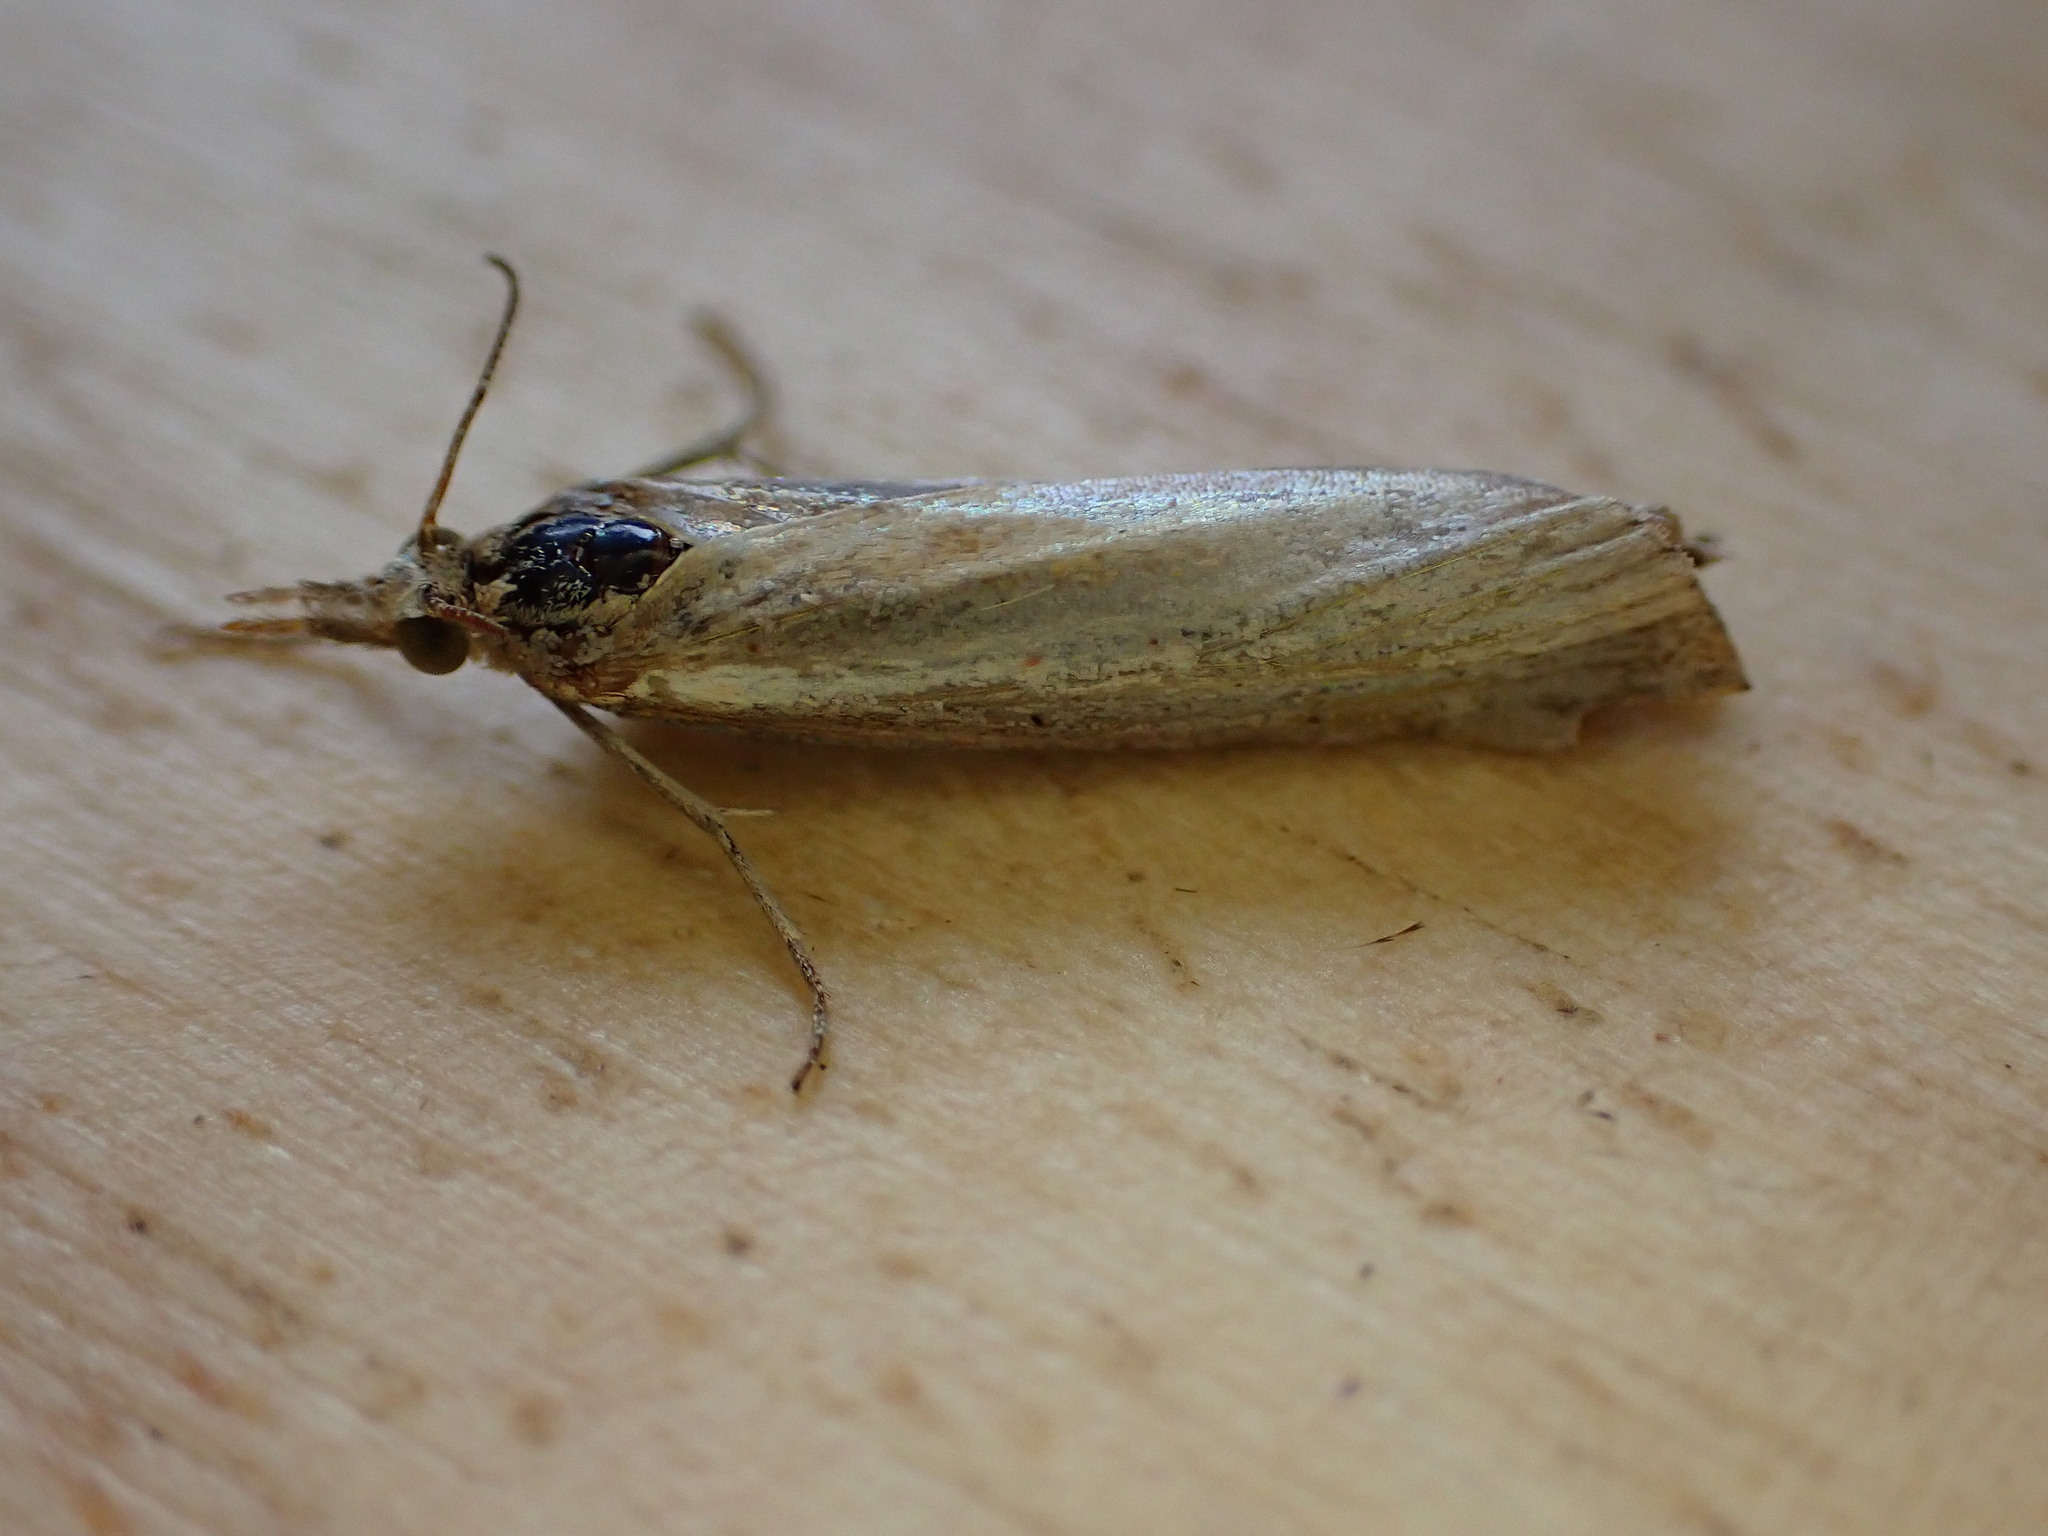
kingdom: Animalia
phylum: Arthropoda
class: Insecta
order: Lepidoptera
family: Crambidae
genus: Agriphila
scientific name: Agriphila straminella
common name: Straw grass-veneer
